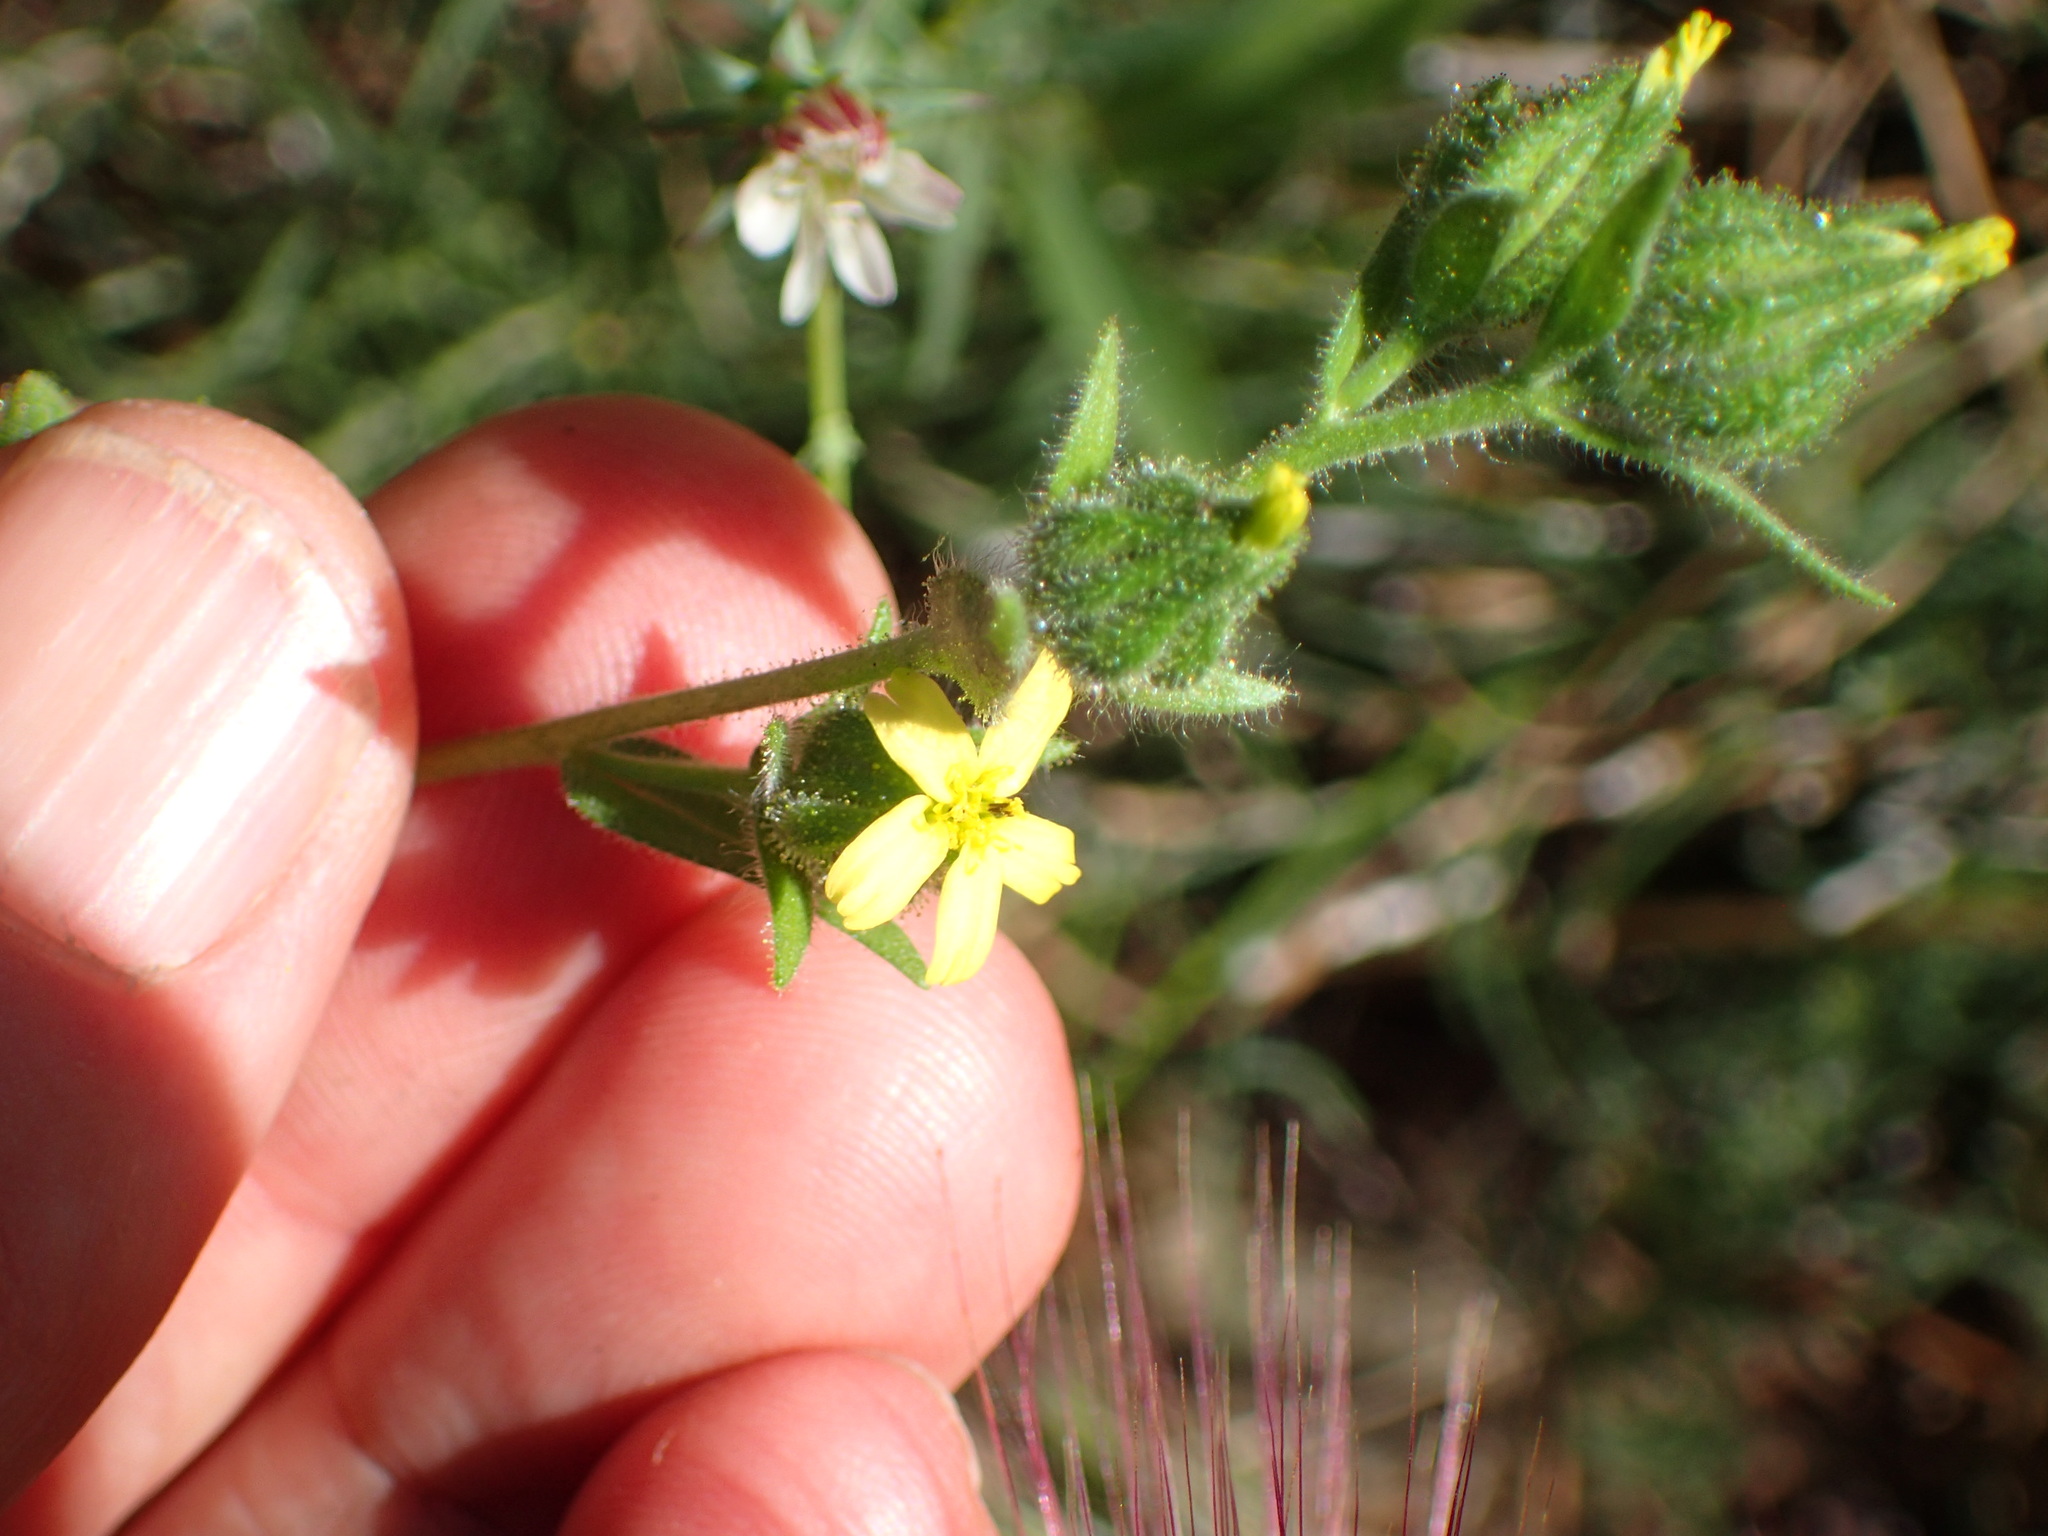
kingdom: Plantae
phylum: Tracheophyta
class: Magnoliopsida
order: Asterales
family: Asteraceae
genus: Madia
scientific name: Madia gracilis
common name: Grassy tarweed
